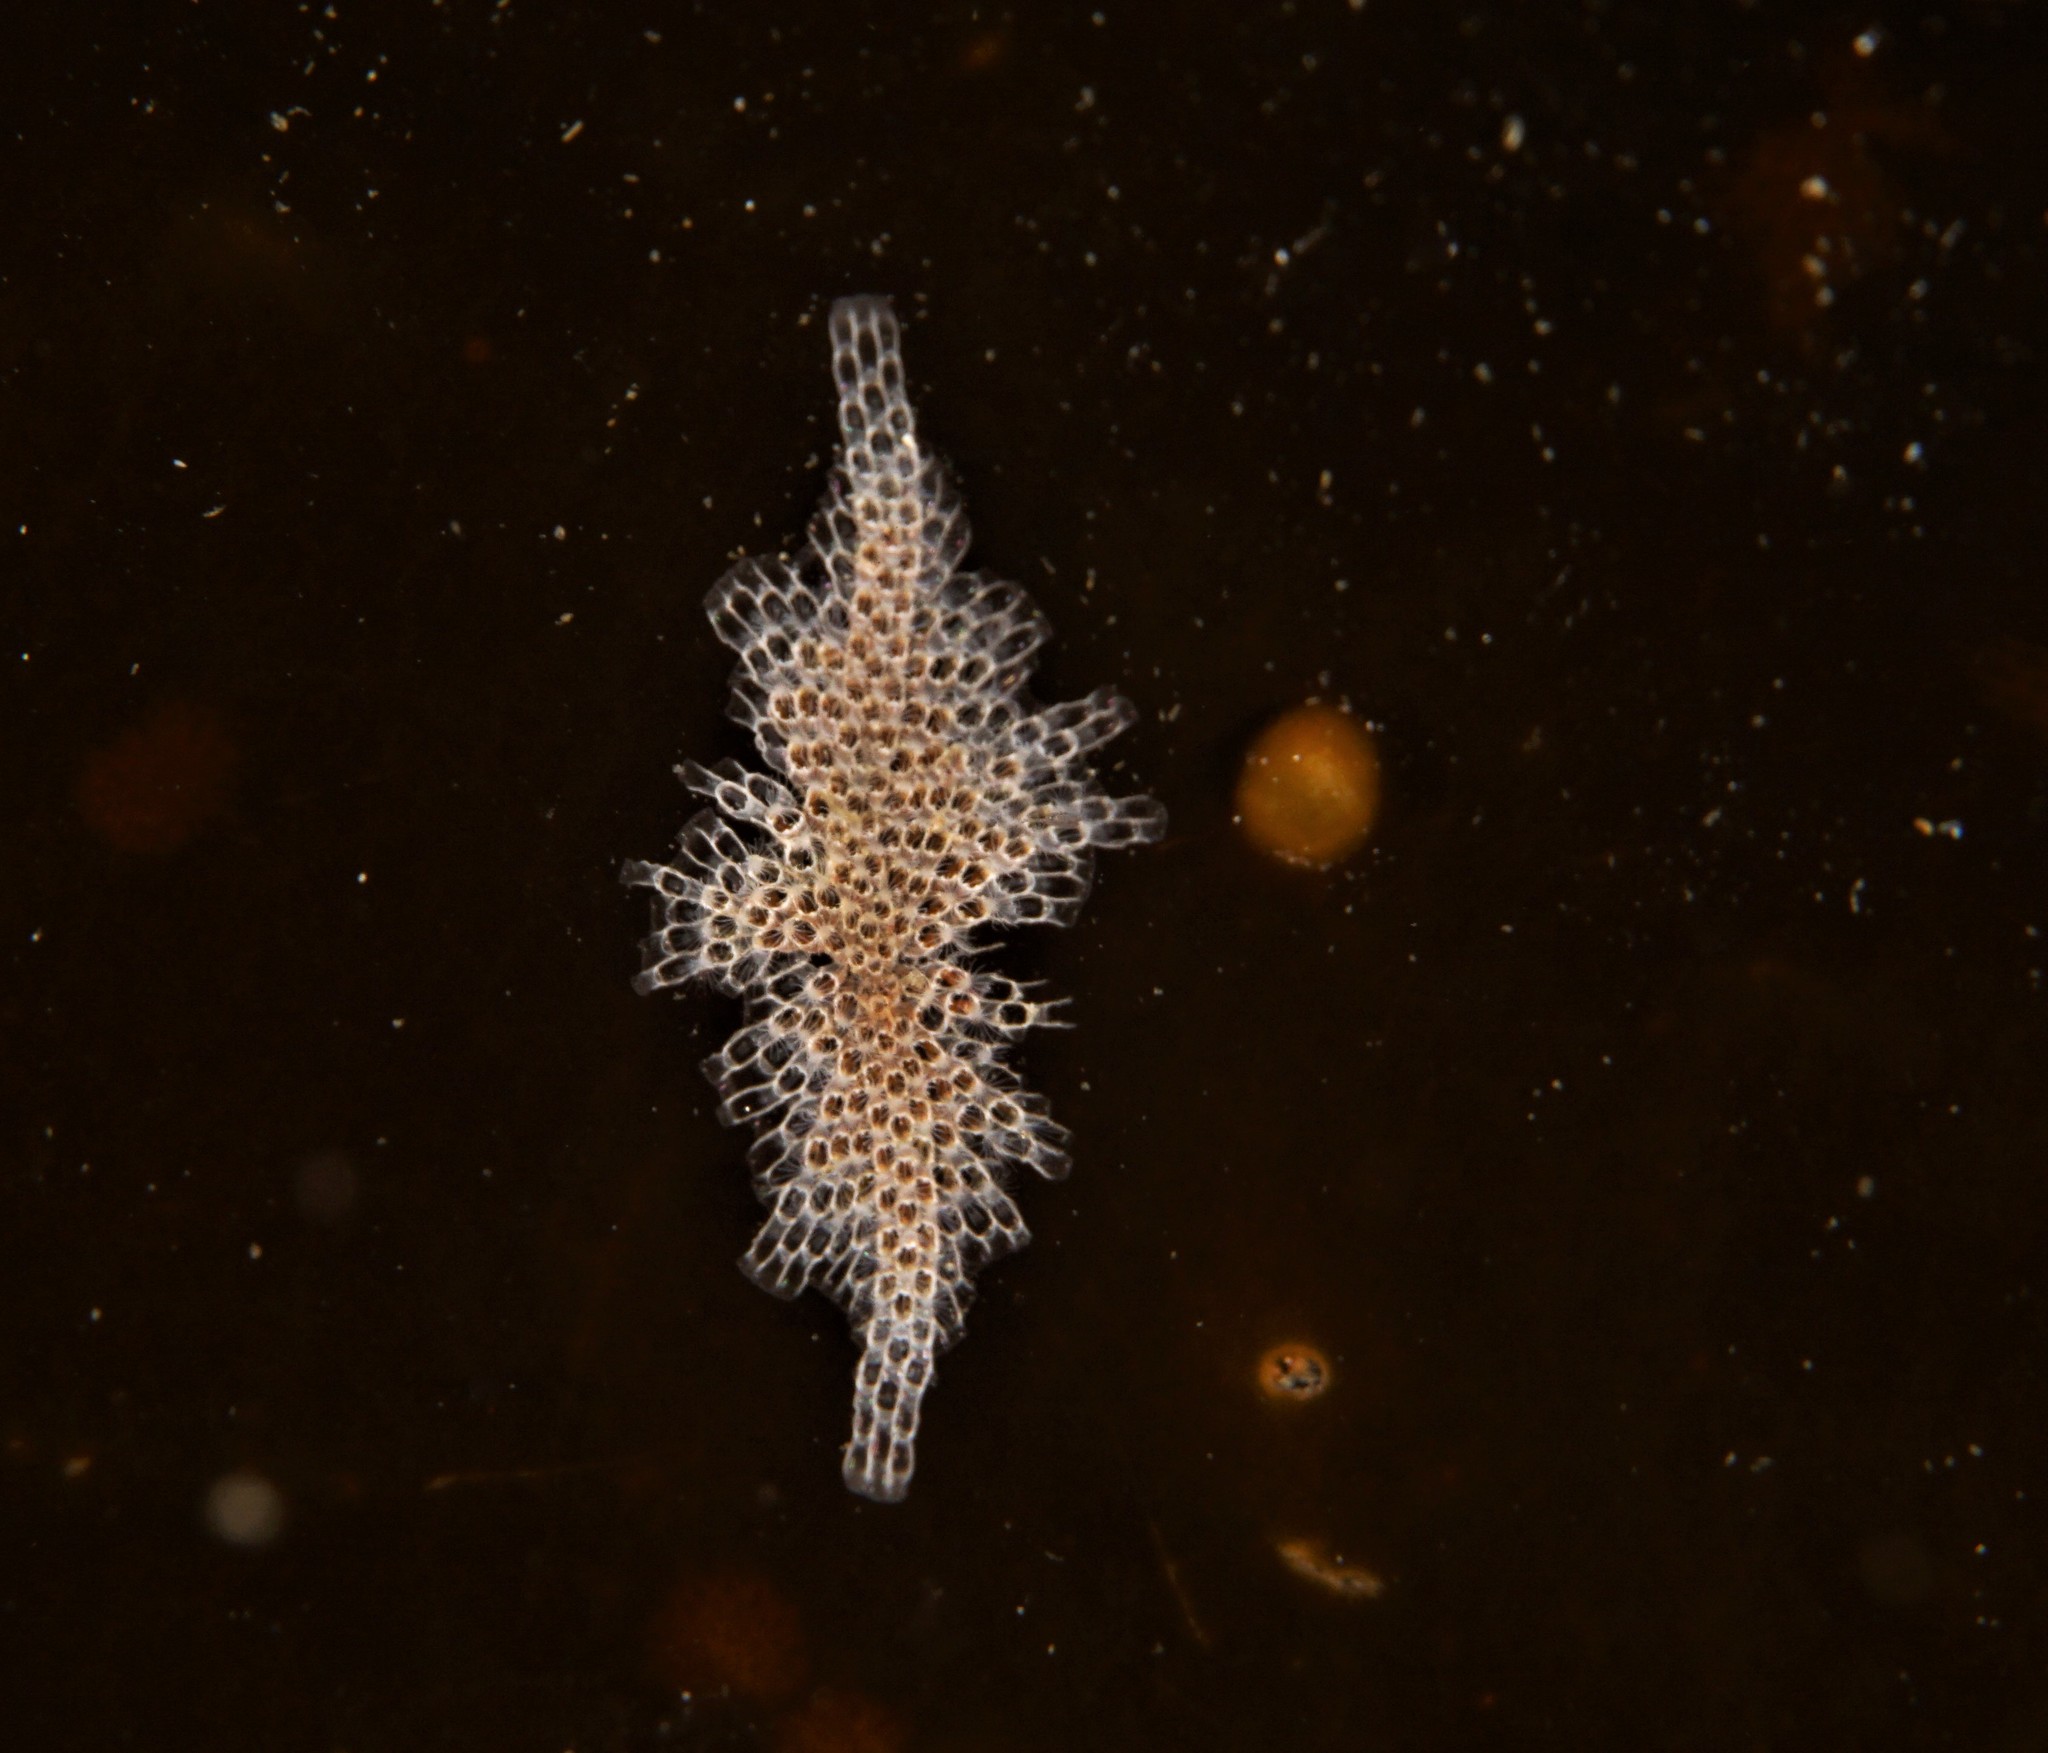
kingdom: Animalia
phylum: Bryozoa
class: Gymnolaemata
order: Cheilostomatida
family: Electridae
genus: Electra
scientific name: Electra pilosa
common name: Hairy sea-mat
